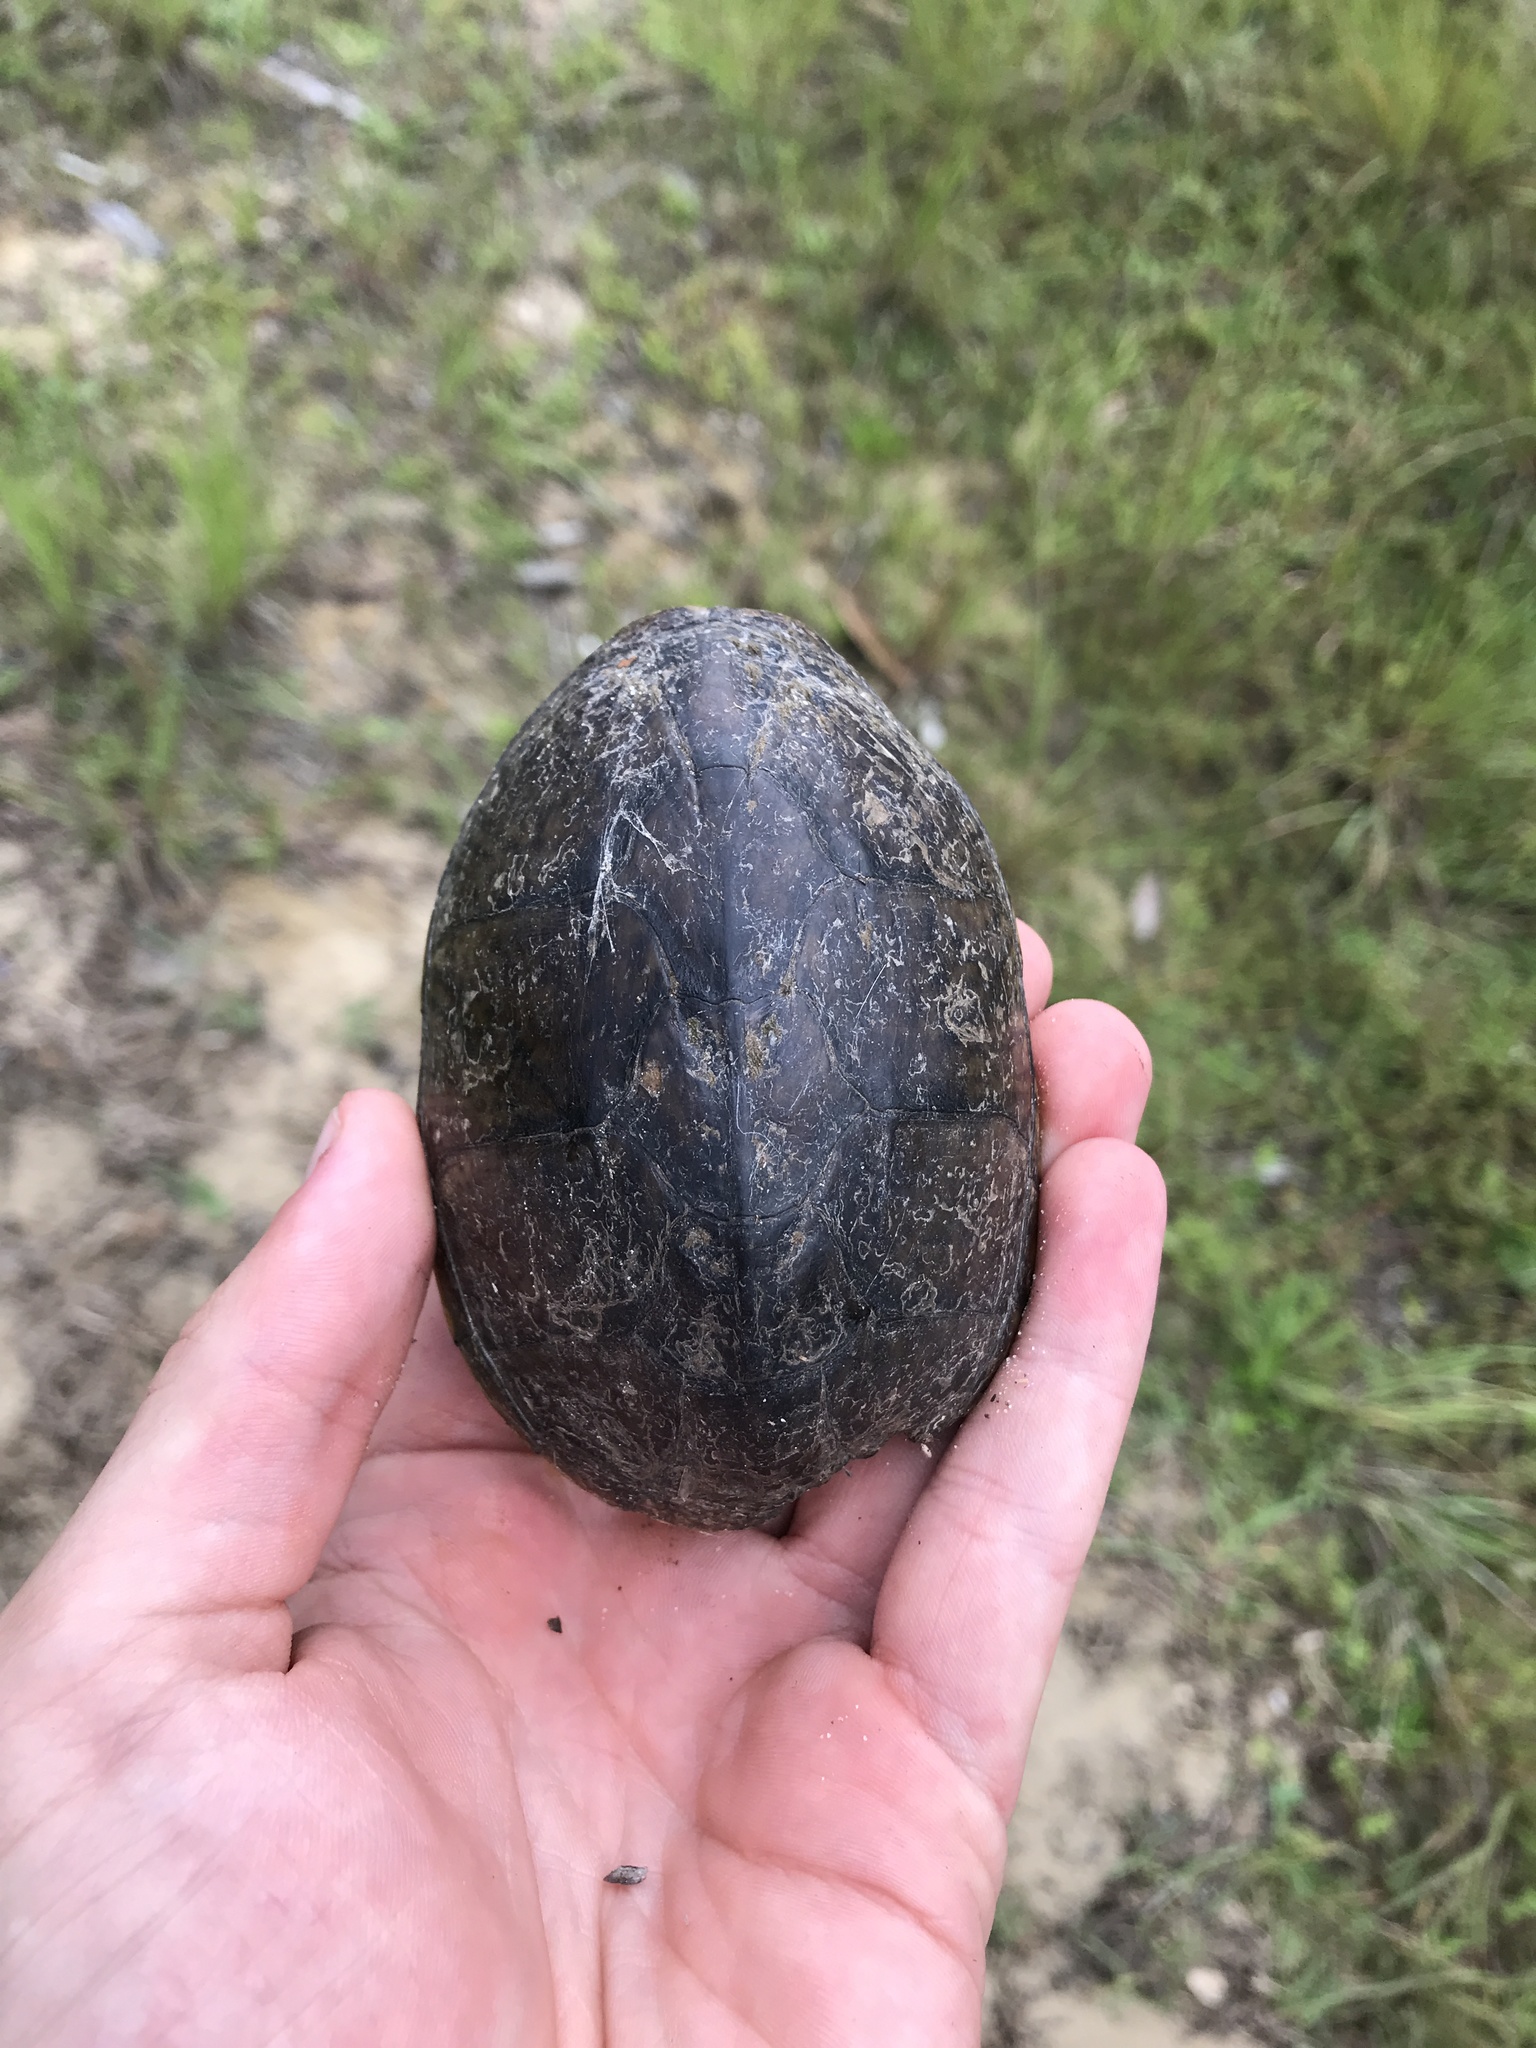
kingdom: Animalia
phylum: Chordata
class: Testudines
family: Kinosternidae
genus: Sternotherus
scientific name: Sternotherus odoratus
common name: Common musk turtle
